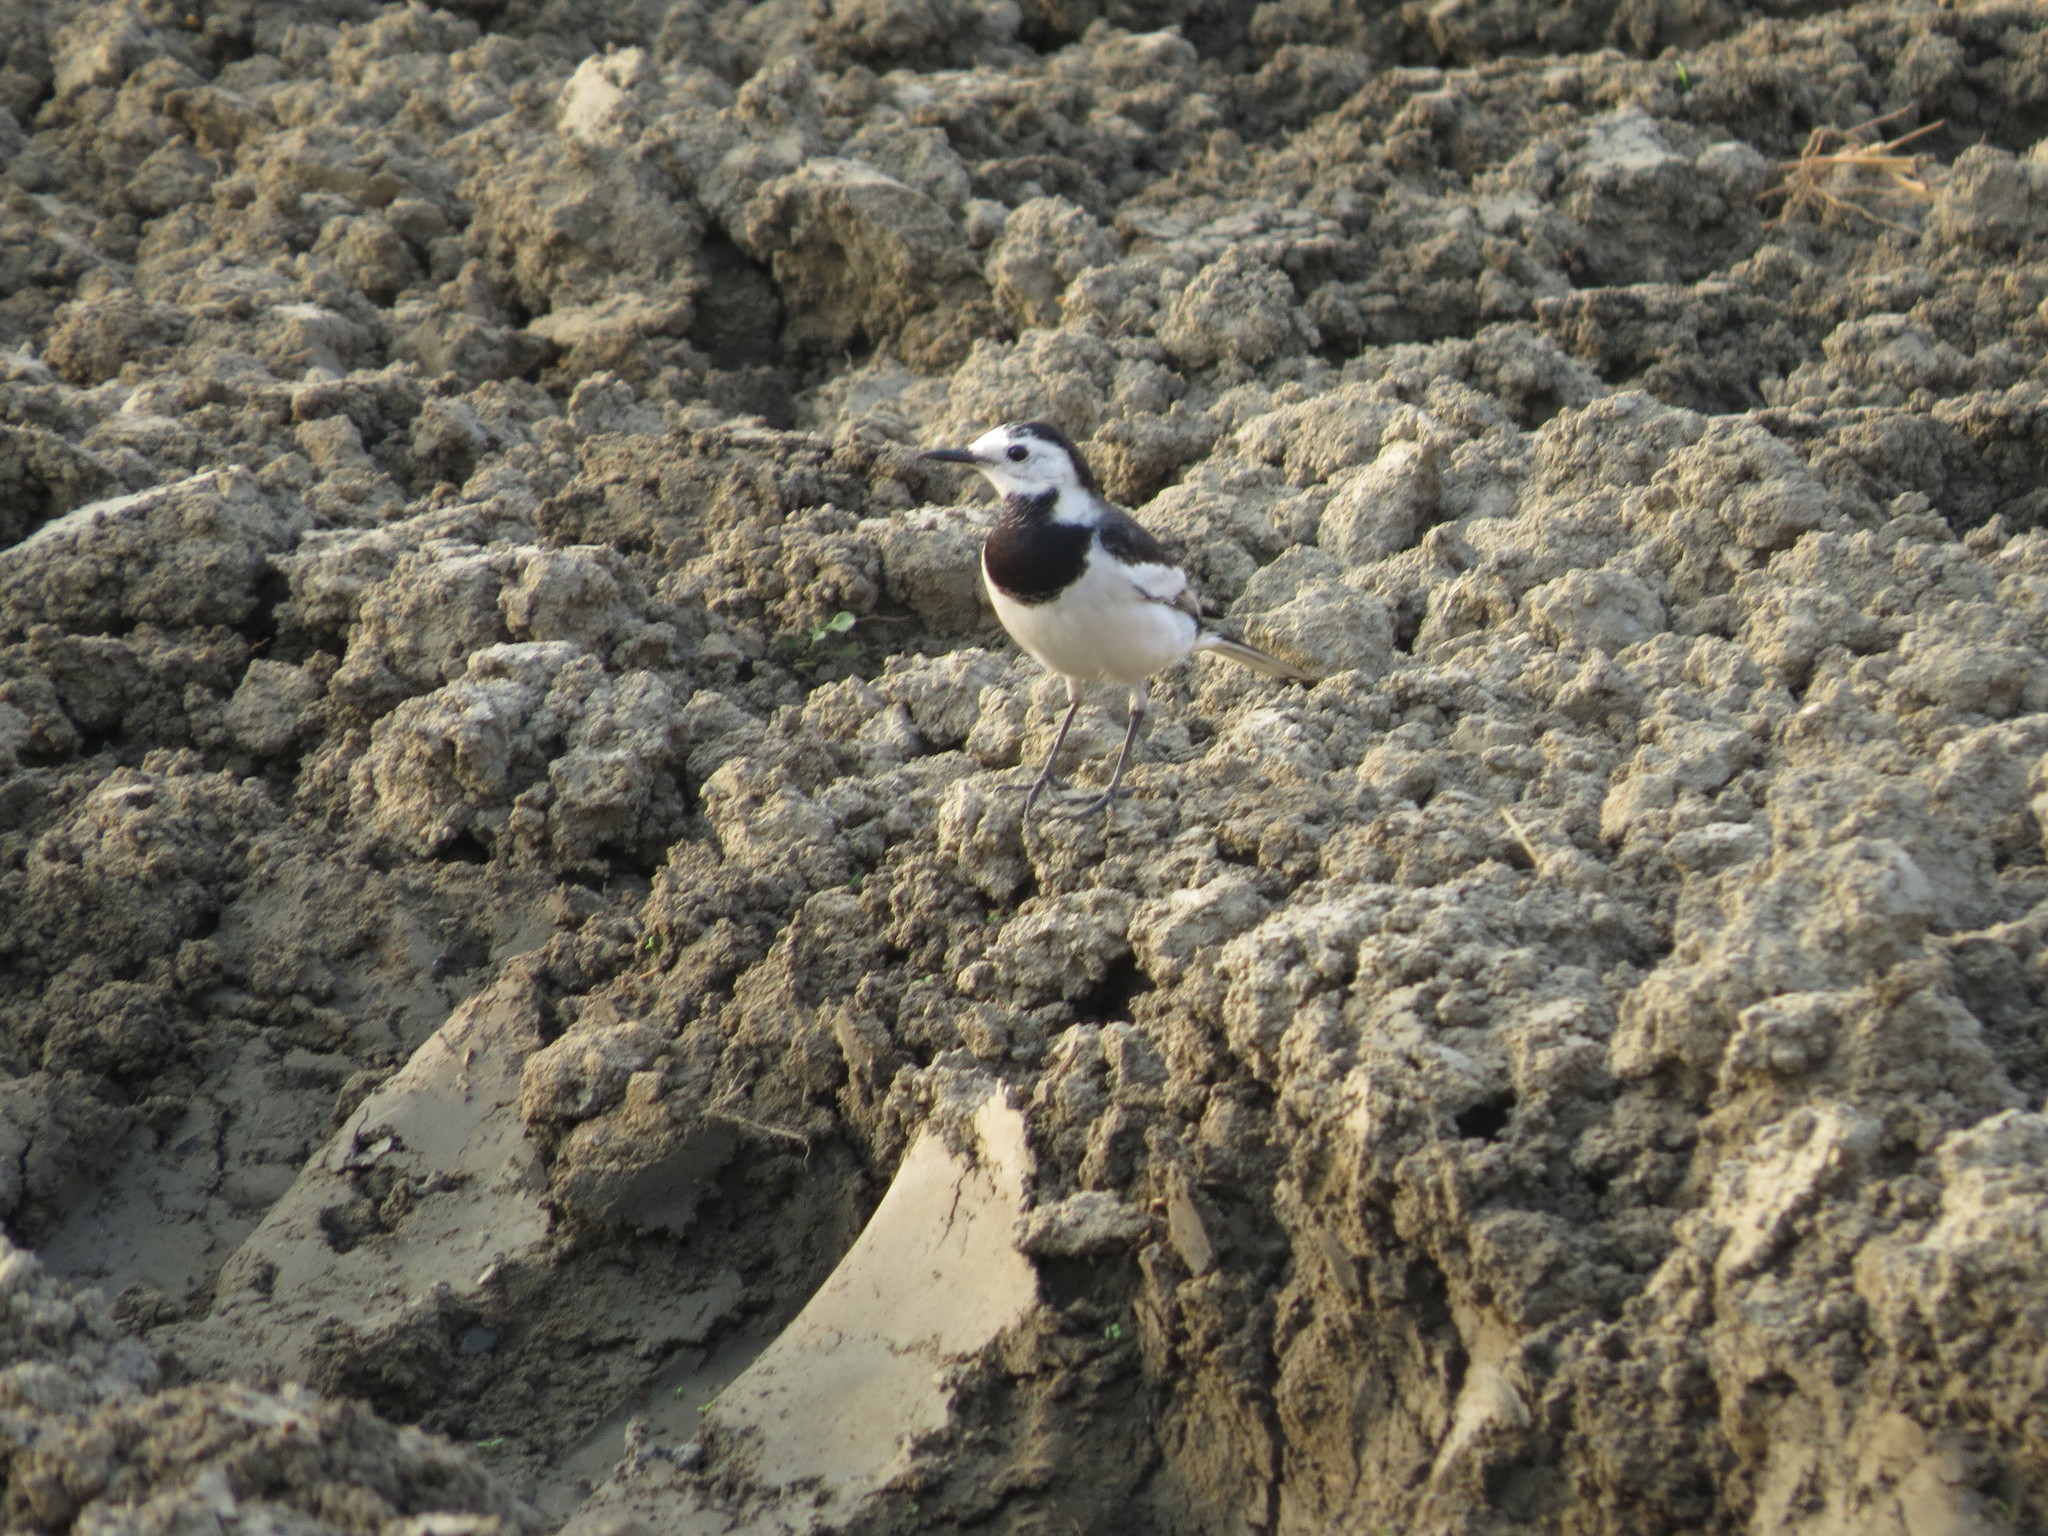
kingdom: Animalia
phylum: Chordata
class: Aves
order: Passeriformes
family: Motacillidae
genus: Motacilla
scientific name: Motacilla alba
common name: White wagtail
